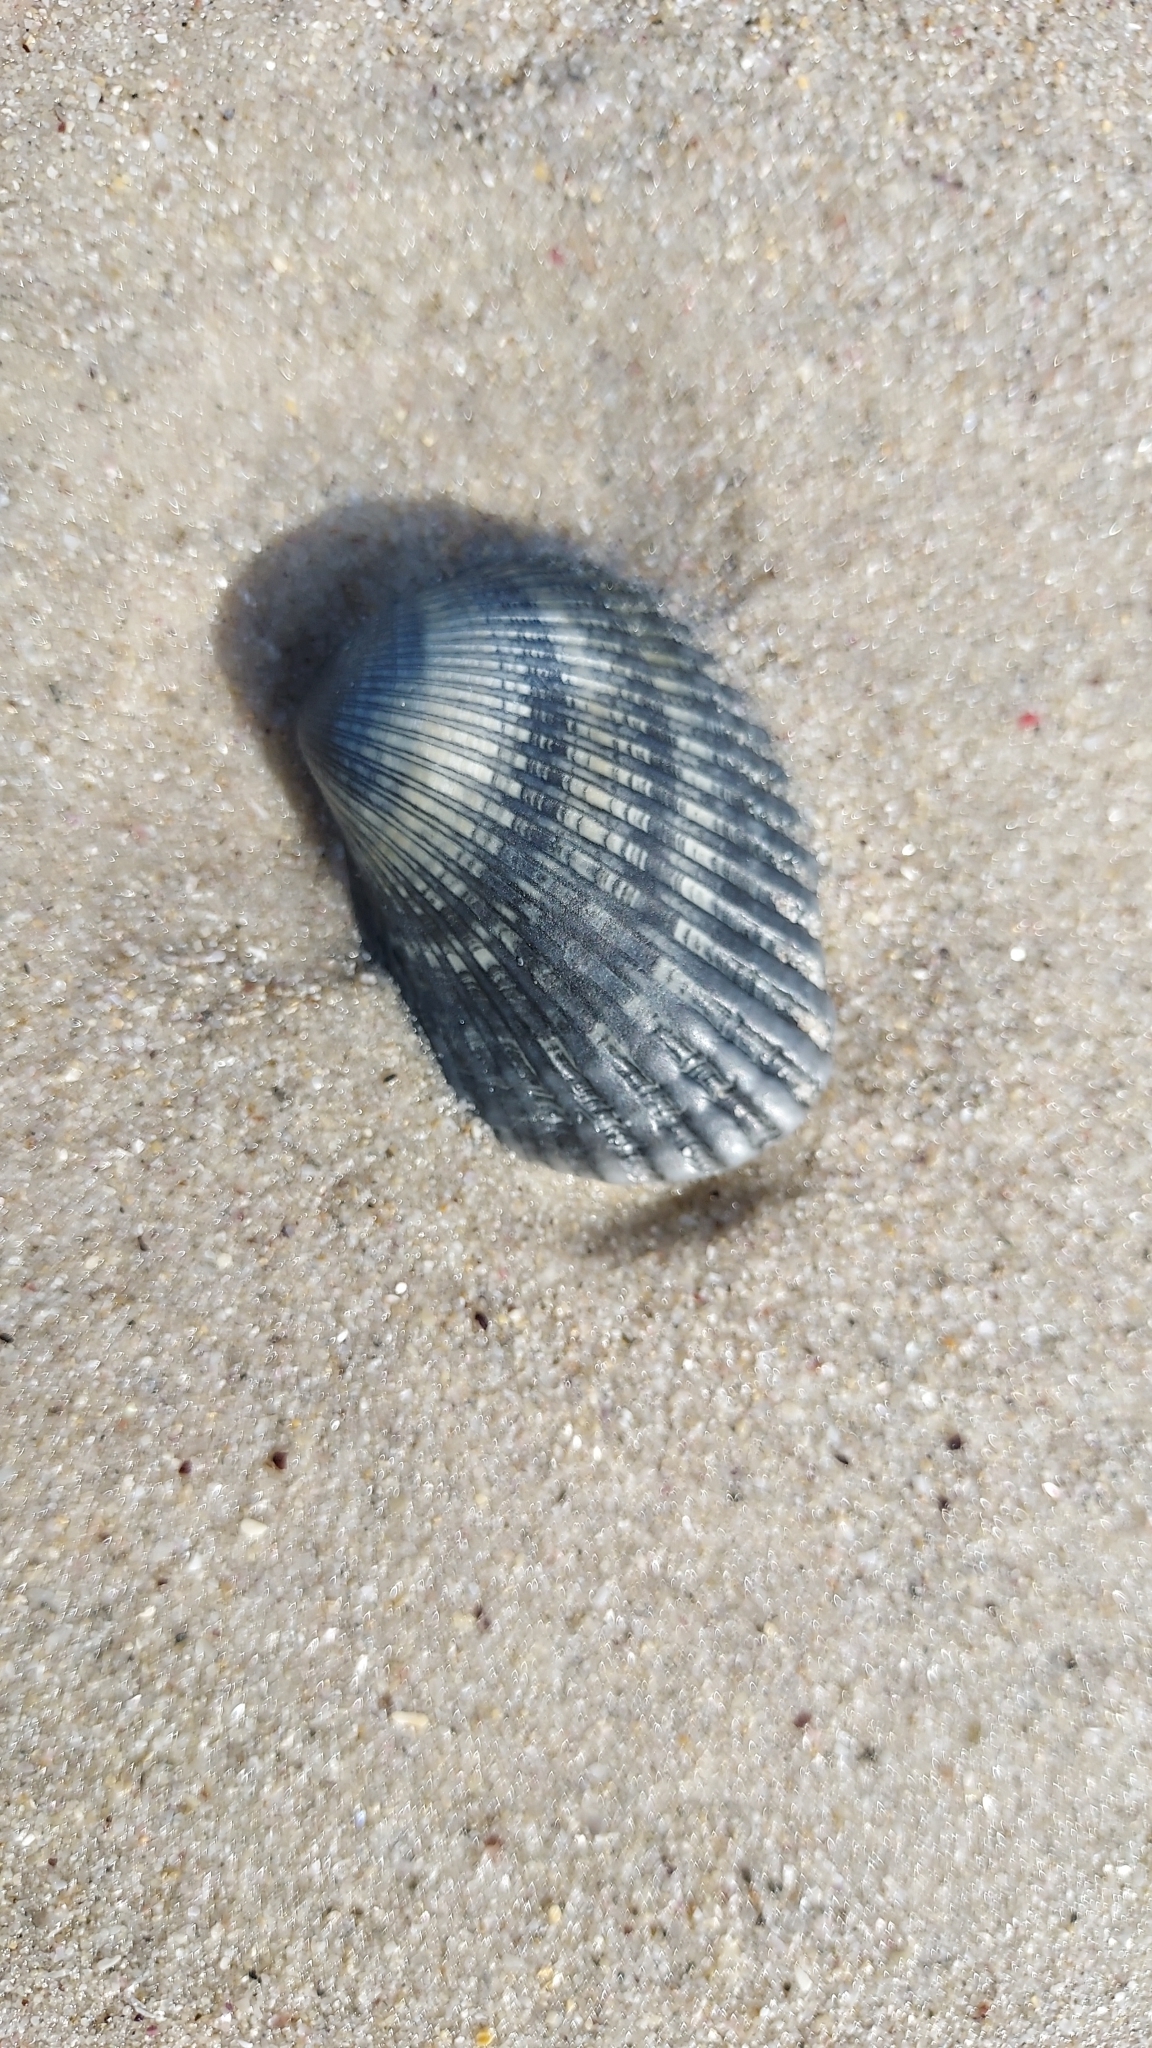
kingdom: Animalia
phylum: Mollusca
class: Bivalvia
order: Arcida
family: Arcidae
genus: Anadara
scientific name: Anadara trapezia
